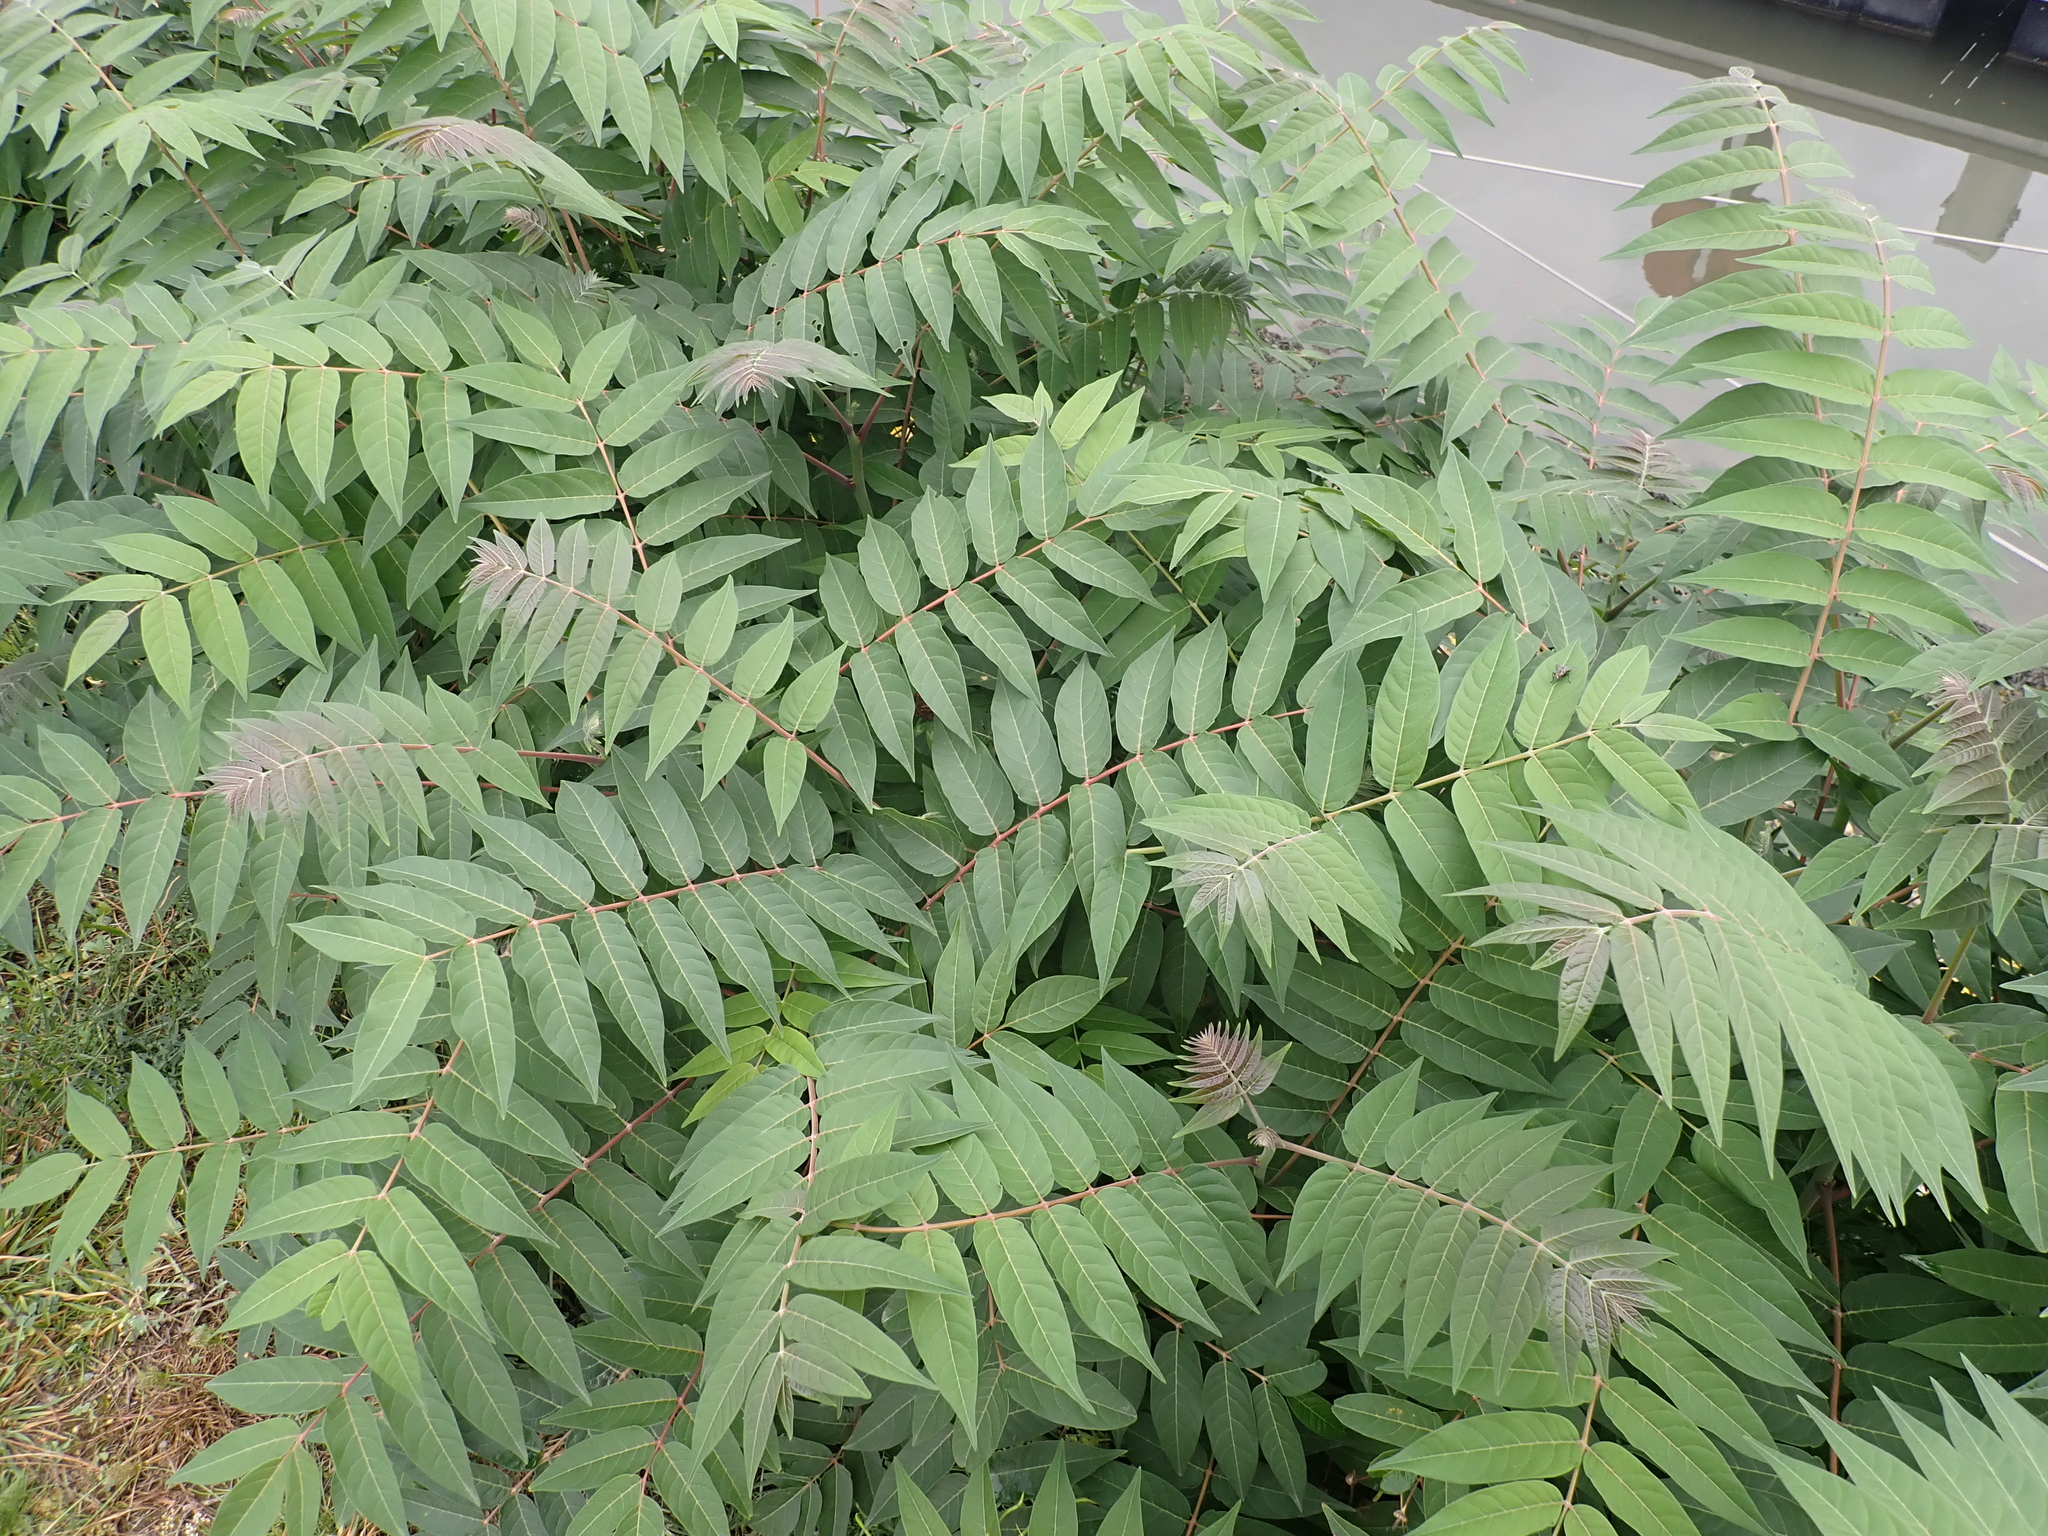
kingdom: Plantae
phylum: Tracheophyta
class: Magnoliopsida
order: Sapindales
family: Simaroubaceae
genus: Ailanthus
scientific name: Ailanthus altissima
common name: Tree-of-heaven
